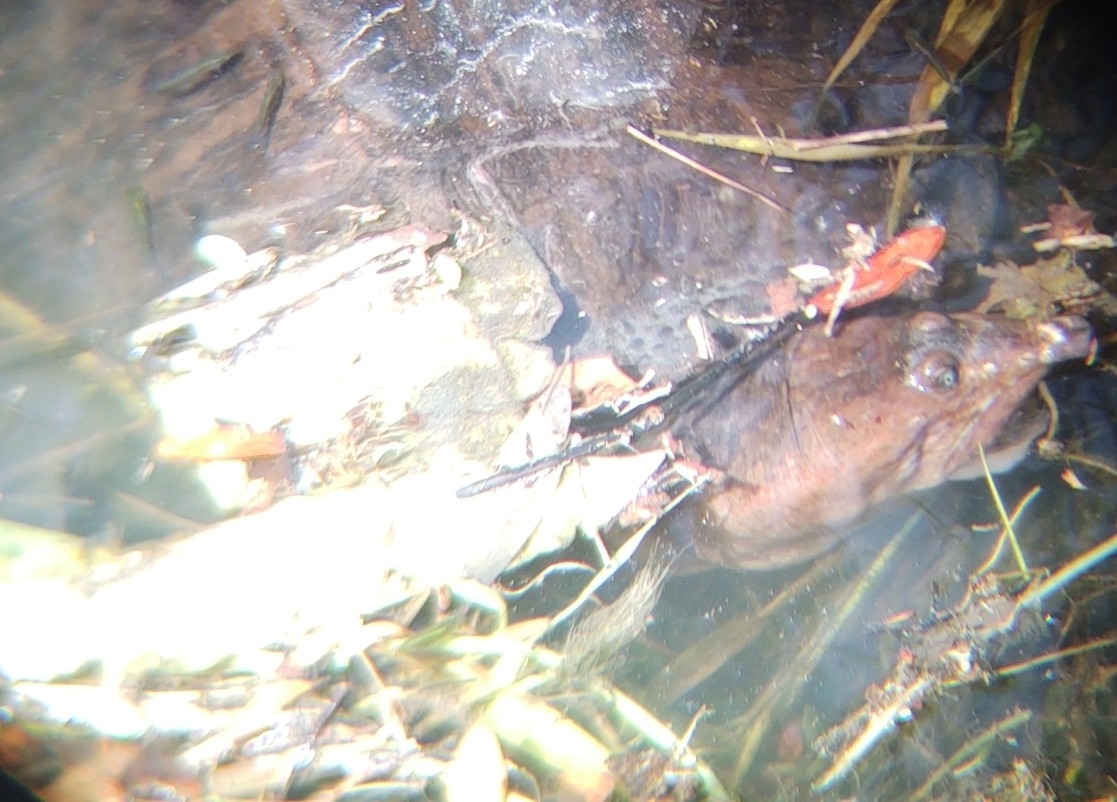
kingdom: Animalia
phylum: Chordata
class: Testudines
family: Trionychidae
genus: Apalone
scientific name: Apalone ferox
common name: Florida softshell turtle
